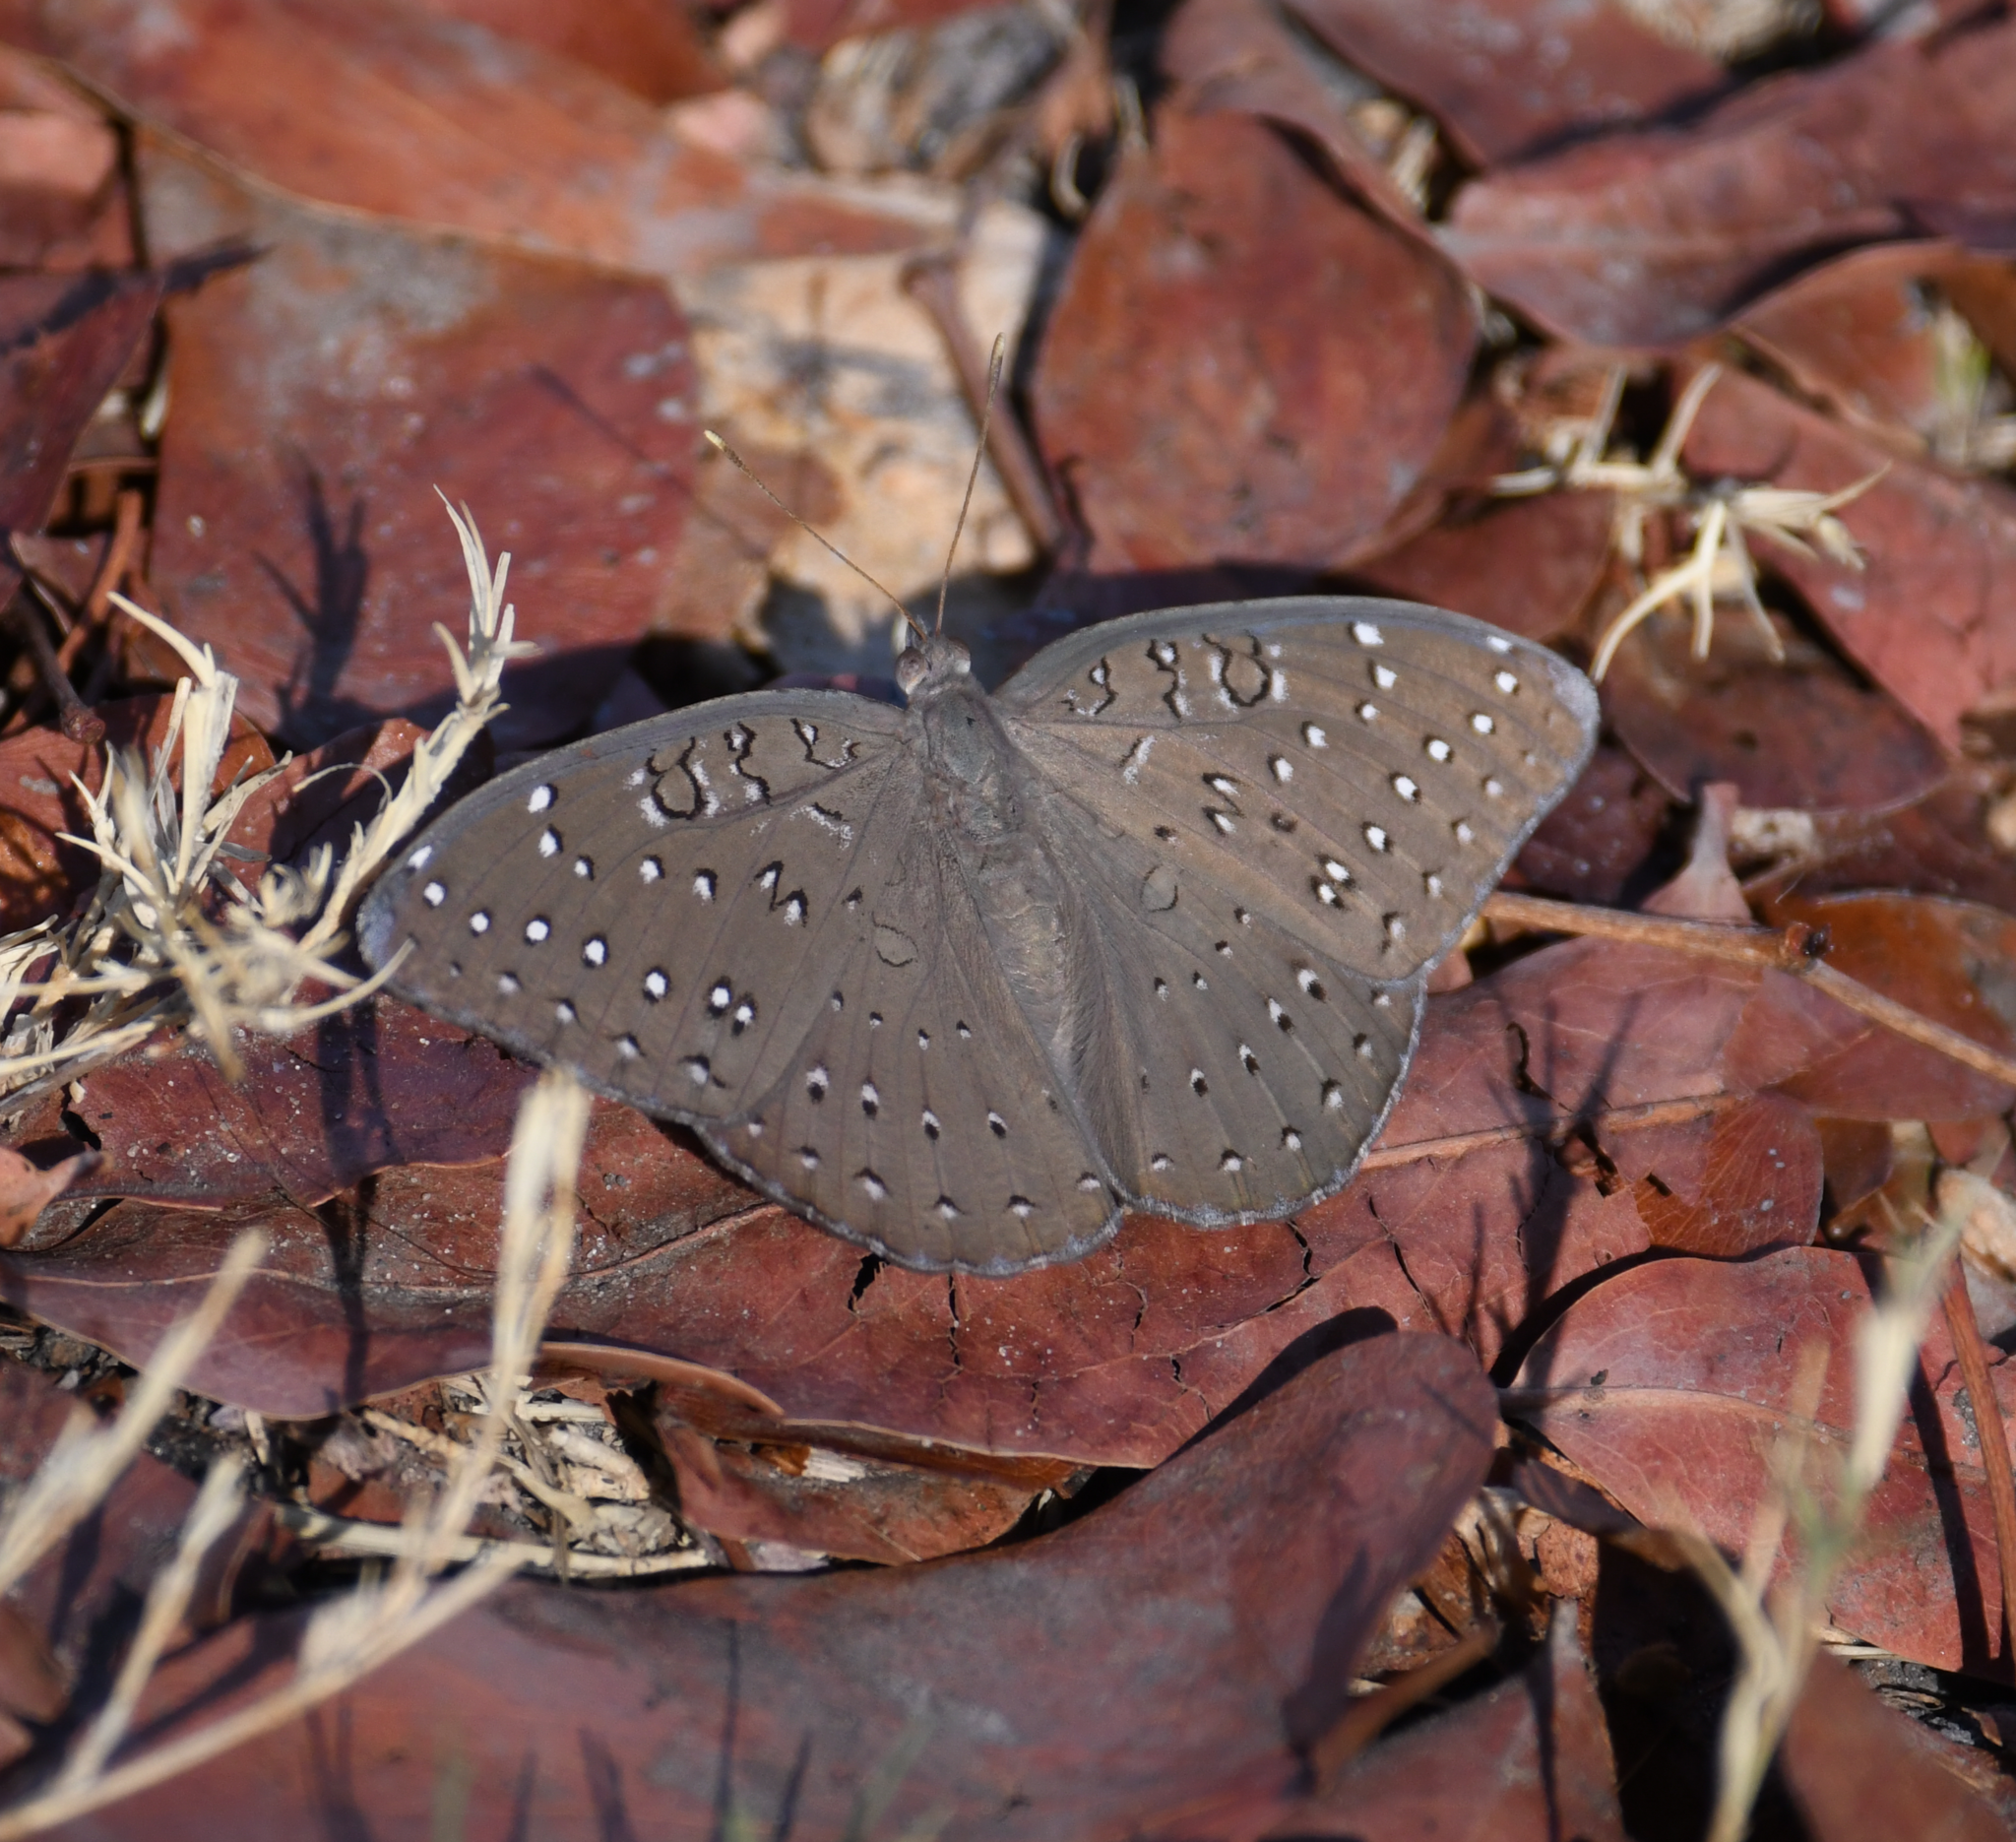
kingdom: Animalia
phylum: Arthropoda
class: Insecta
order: Lepidoptera
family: Nymphalidae
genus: Hamanumida
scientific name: Hamanumida daedalus
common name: Guinea-fowl butterfly
